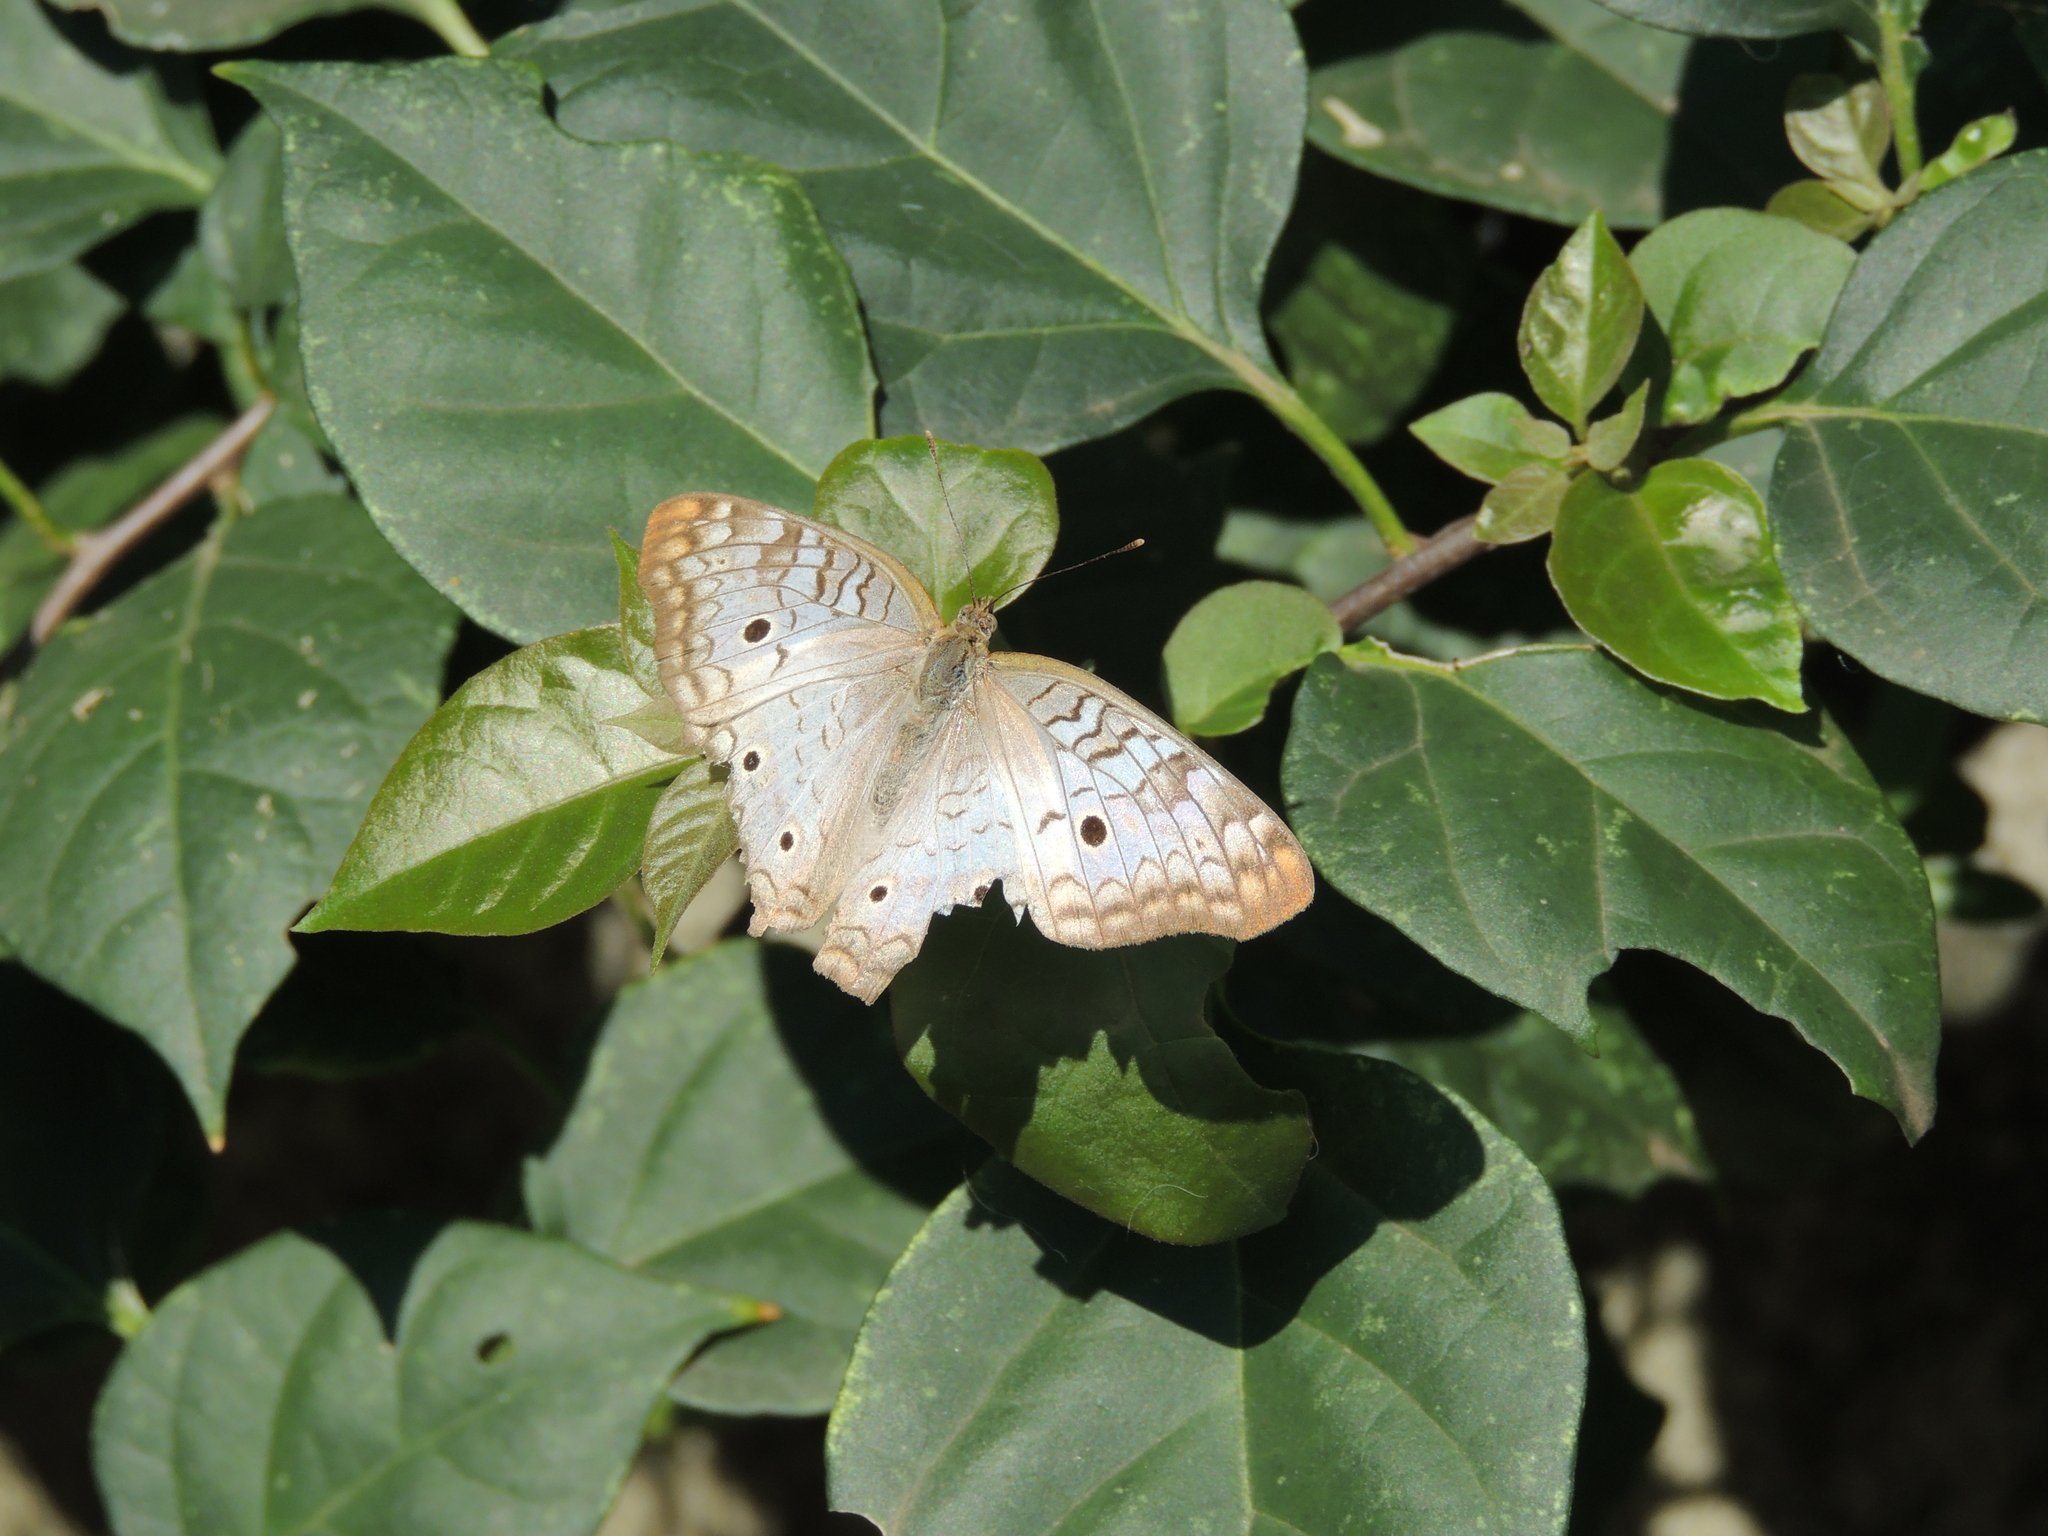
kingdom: Animalia
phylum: Arthropoda
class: Insecta
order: Lepidoptera
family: Nymphalidae
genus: Anartia
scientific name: Anartia jatrophae
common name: White peacock
